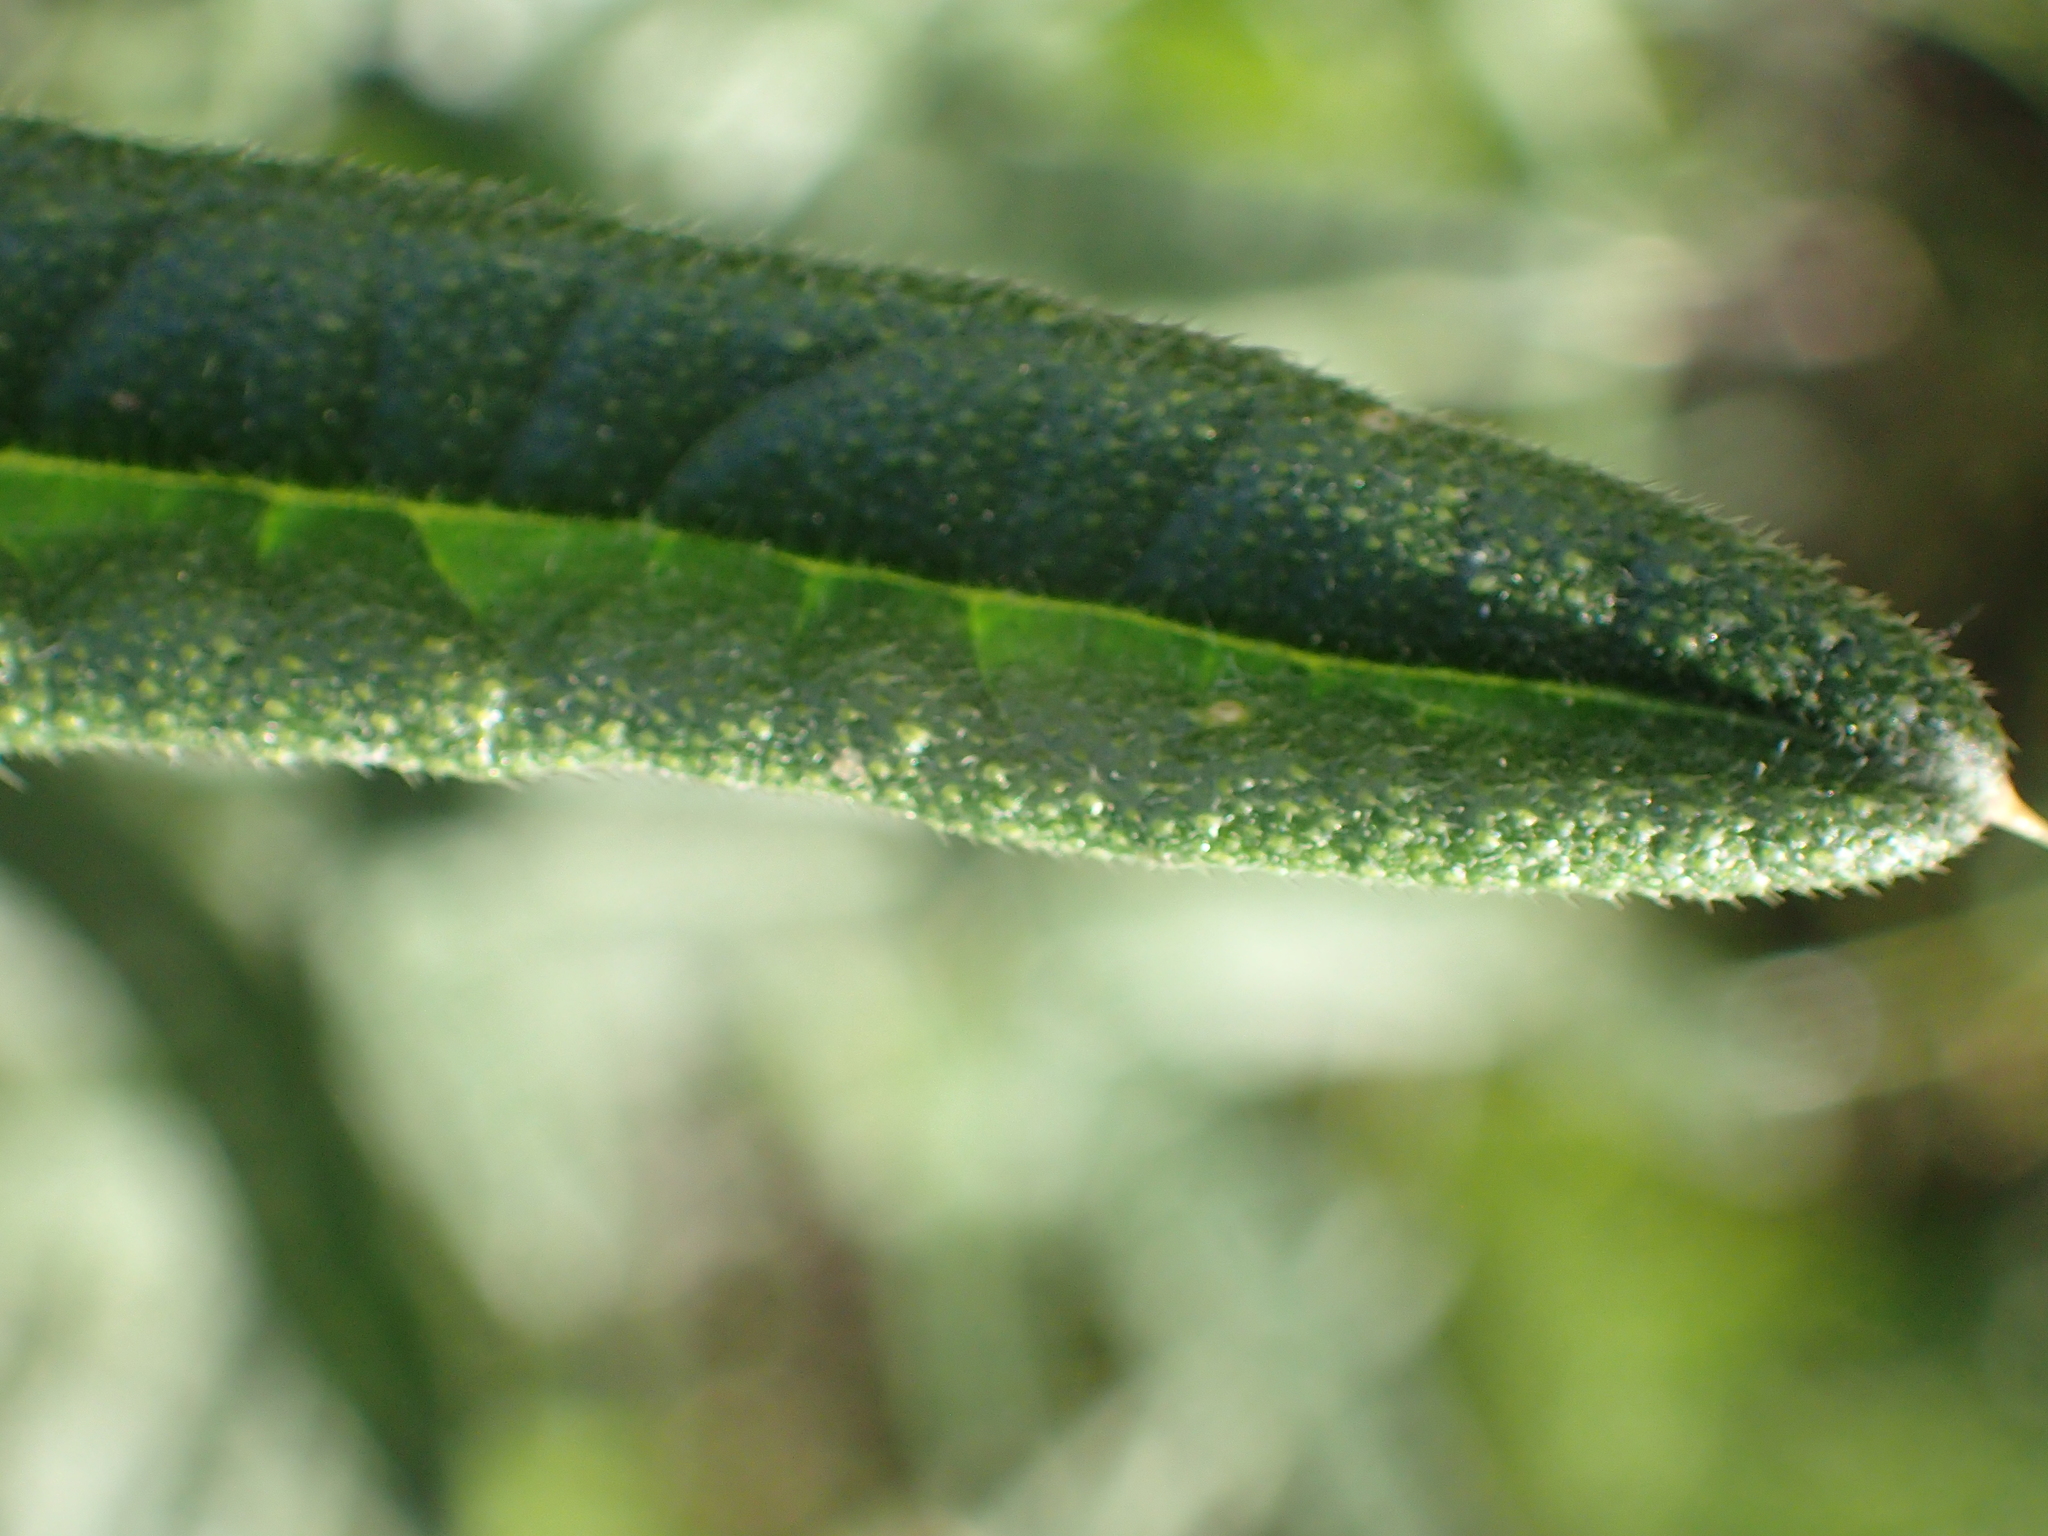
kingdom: Plantae
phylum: Tracheophyta
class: Magnoliopsida
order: Asterales
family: Asteraceae
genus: Cirsium
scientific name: Cirsium vulgare
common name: Bull thistle
